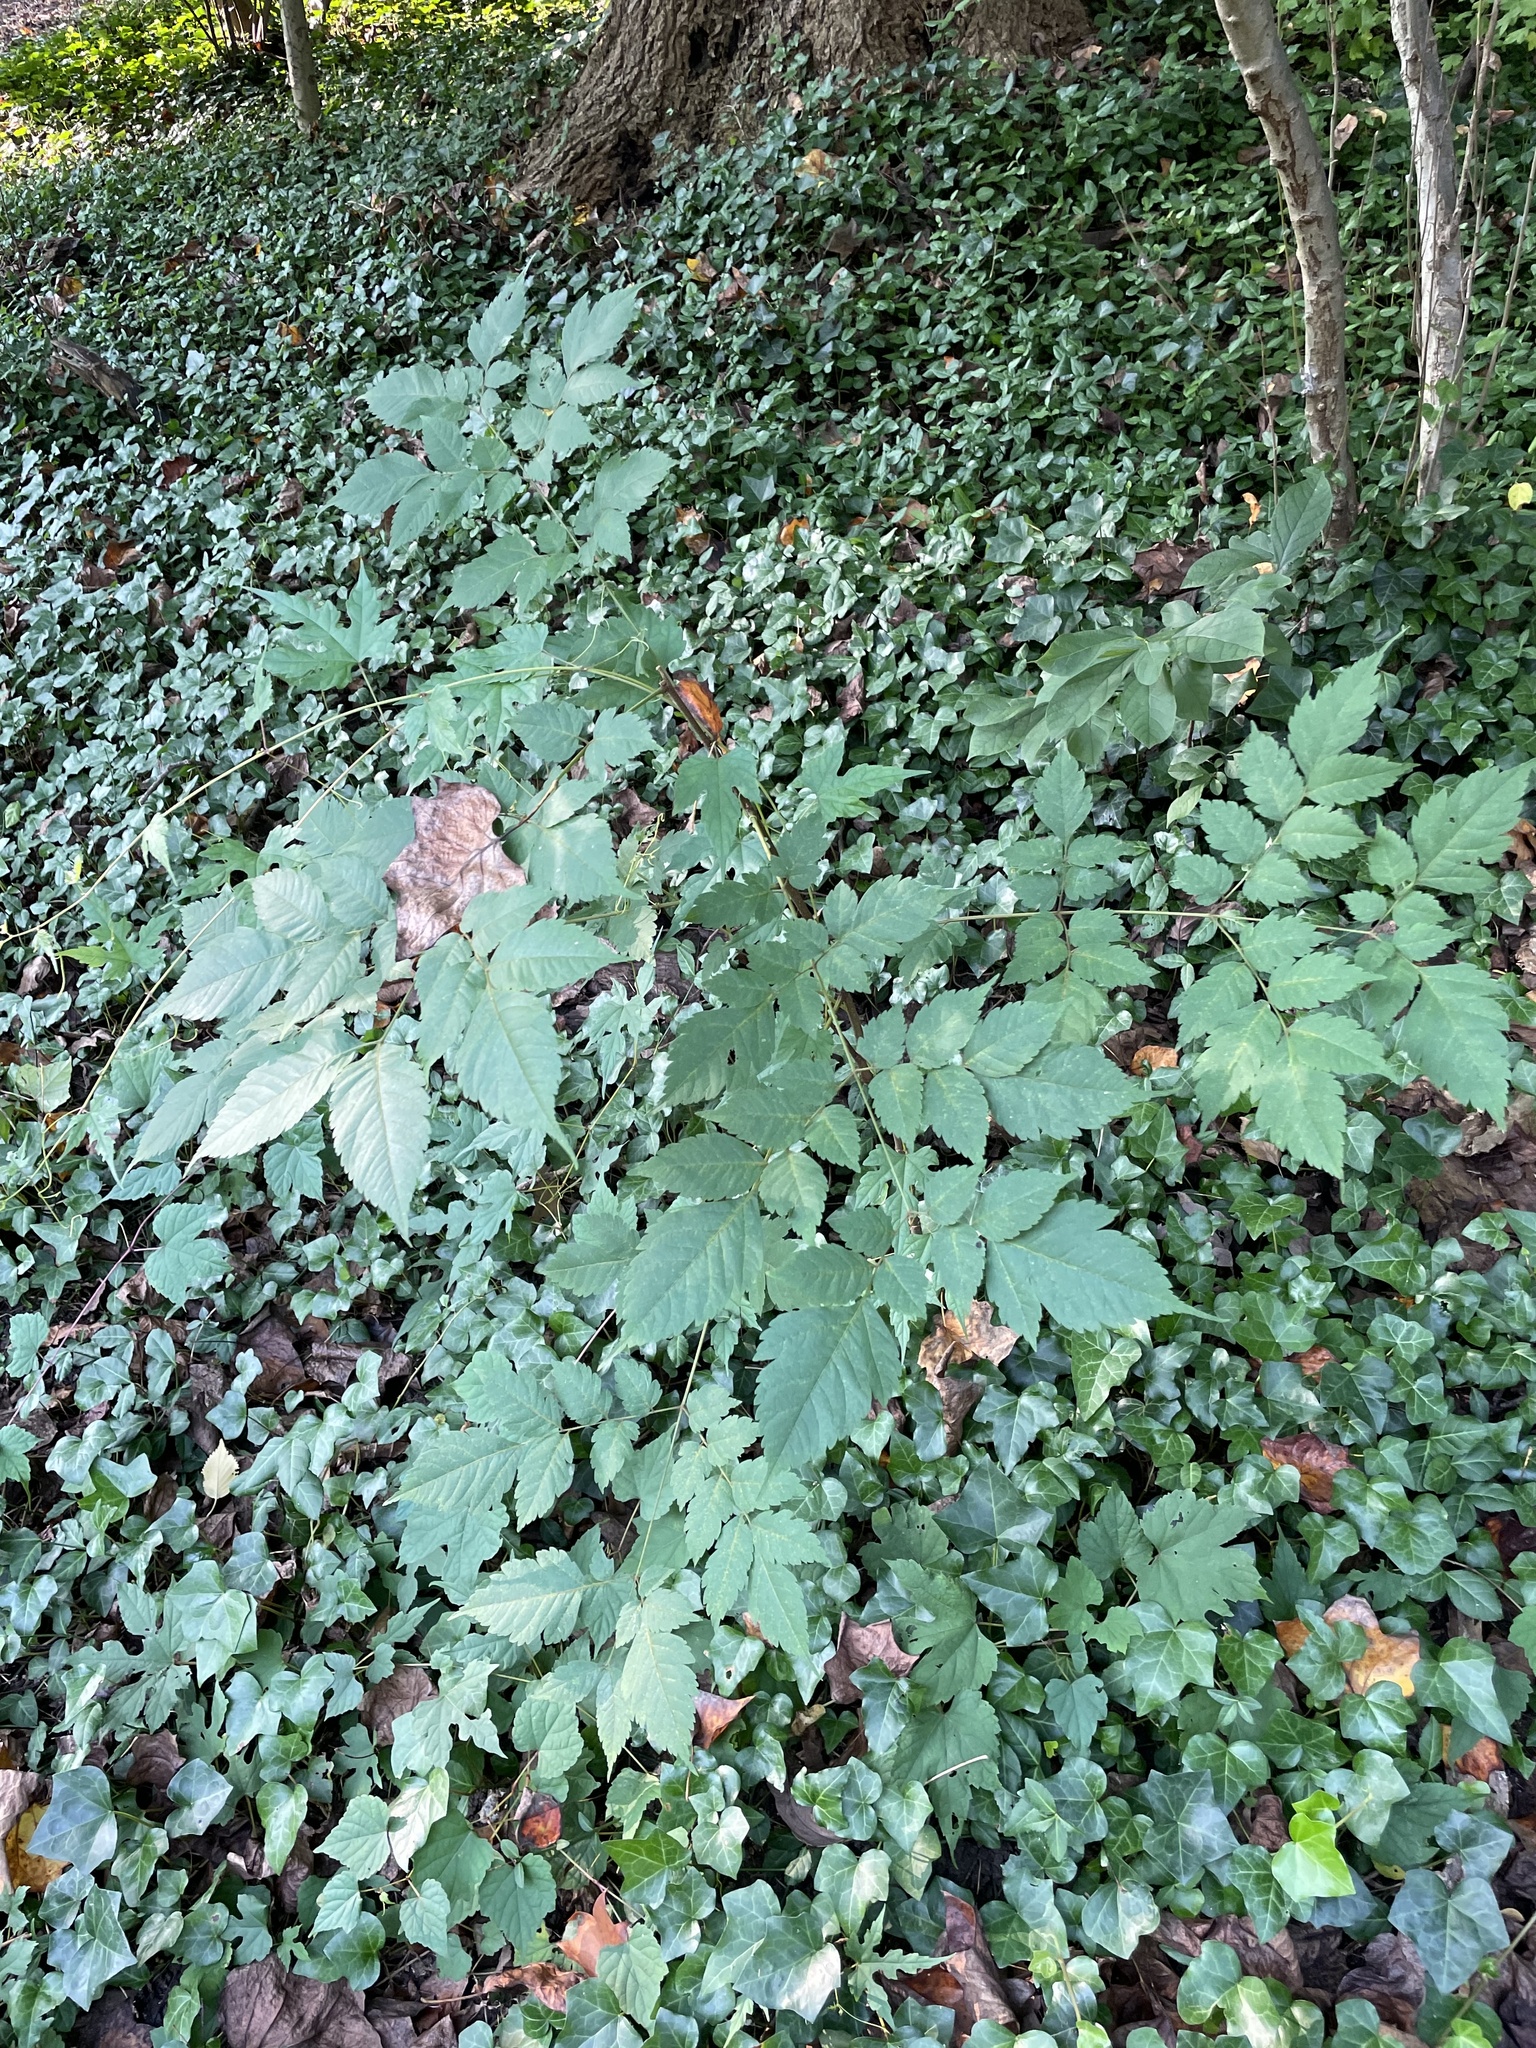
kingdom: Plantae
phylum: Tracheophyta
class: Magnoliopsida
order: Sapindales
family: Sapindaceae
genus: Koelreuteria
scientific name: Koelreuteria paniculata
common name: Pride-of-india
